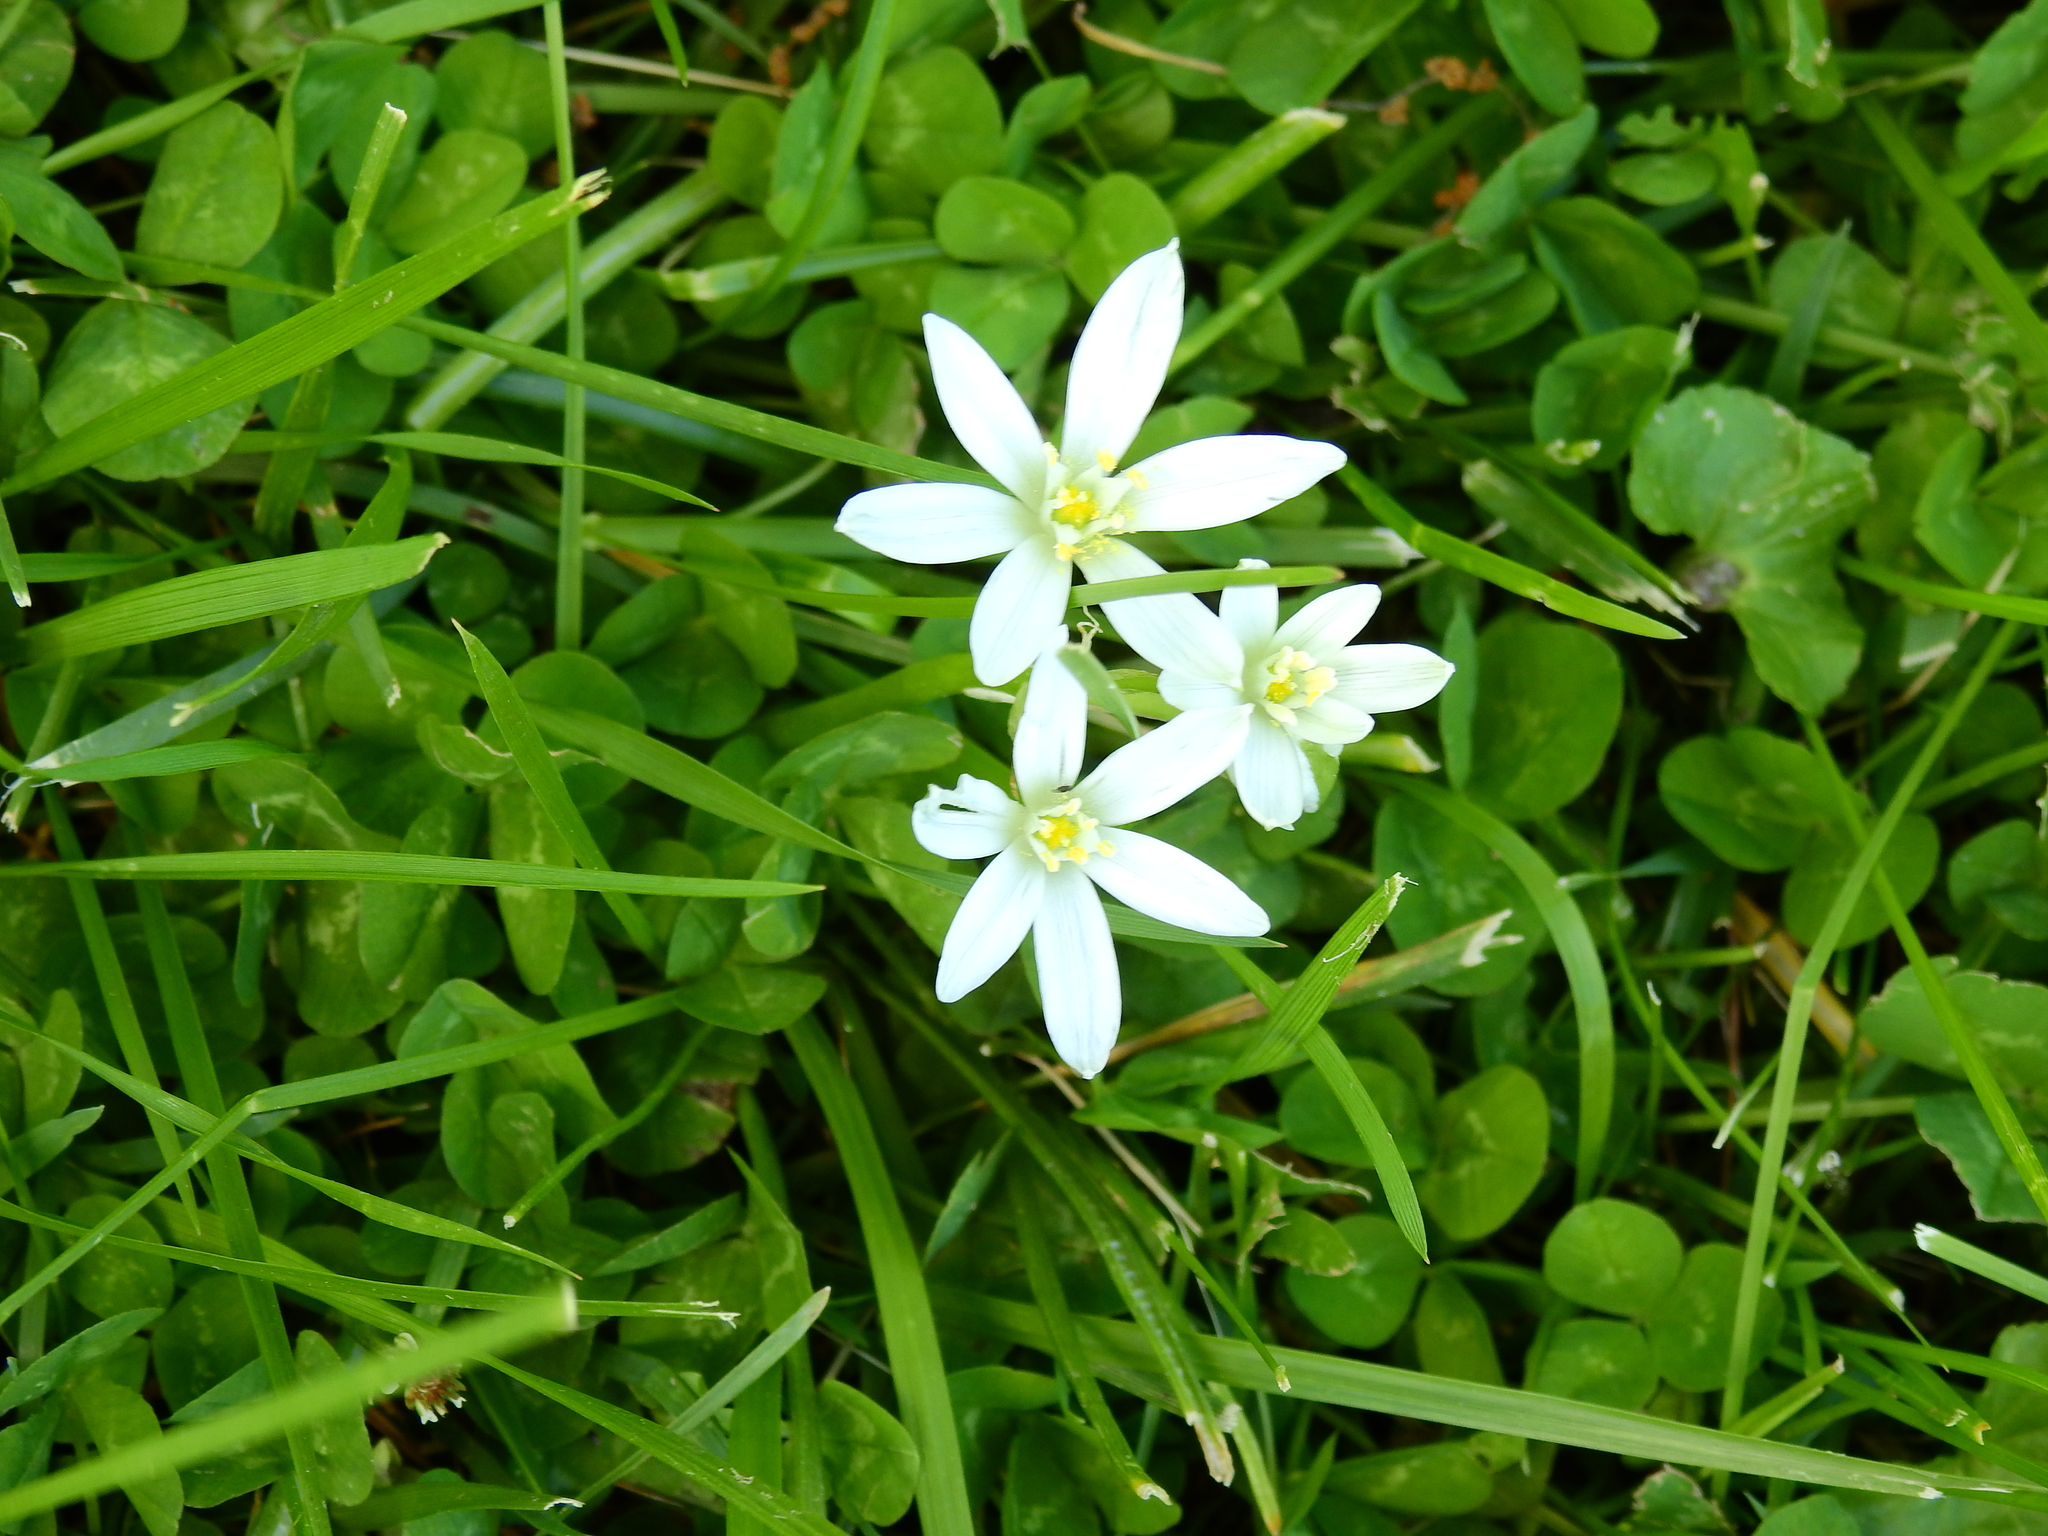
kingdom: Plantae
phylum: Tracheophyta
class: Liliopsida
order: Asparagales
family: Asparagaceae
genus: Ornithogalum
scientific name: Ornithogalum umbellatum
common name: Garden star-of-bethlehem
